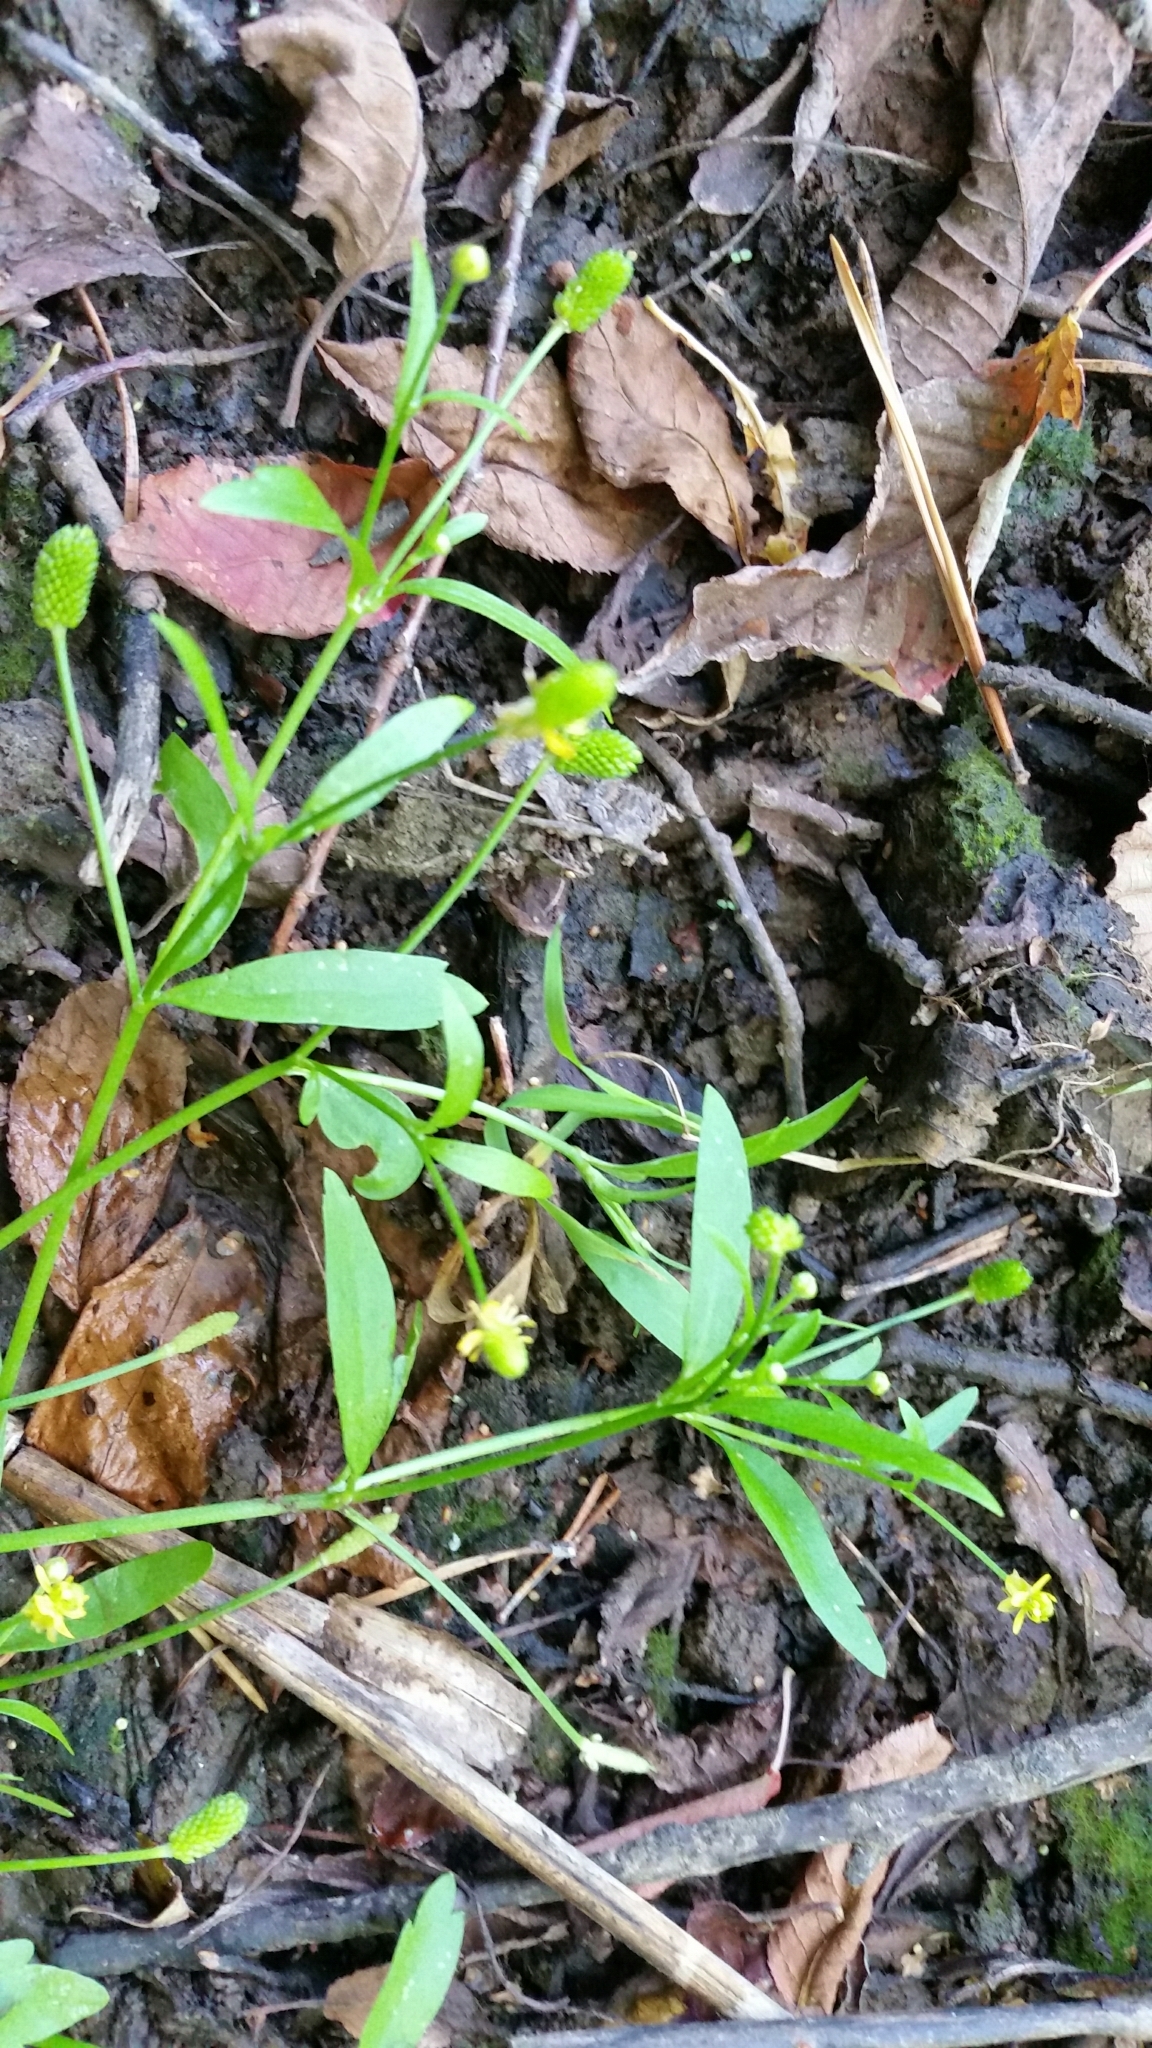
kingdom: Plantae
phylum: Tracheophyta
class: Magnoliopsida
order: Ranunculales
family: Ranunculaceae
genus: Ranunculus
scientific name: Ranunculus sceleratus
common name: Celery-leaved buttercup
